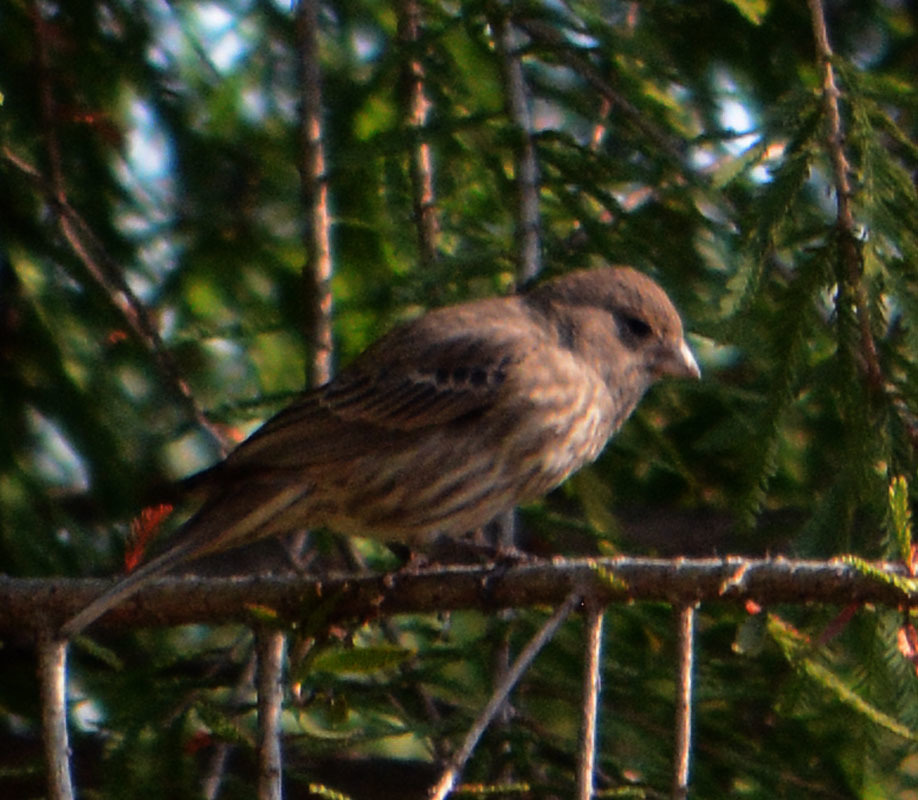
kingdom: Animalia
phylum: Chordata
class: Aves
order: Passeriformes
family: Fringillidae
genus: Haemorhous
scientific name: Haemorhous mexicanus
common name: House finch
